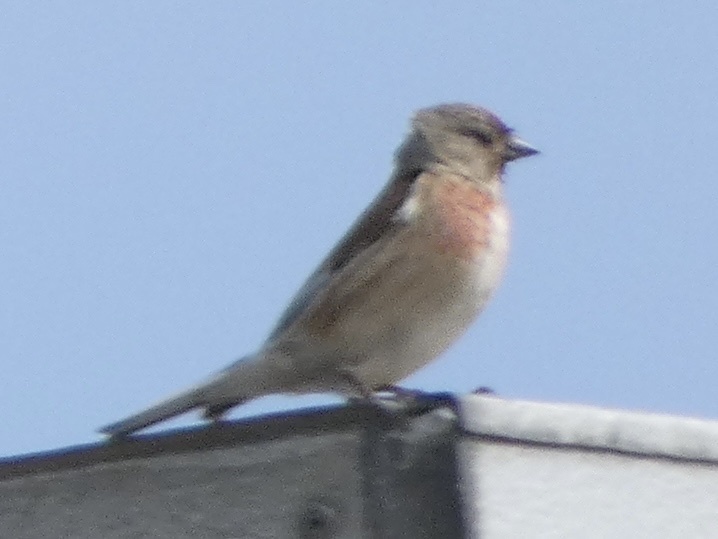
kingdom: Animalia
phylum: Chordata
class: Aves
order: Passeriformes
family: Fringillidae
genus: Linaria
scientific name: Linaria cannabina
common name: Common linnet
